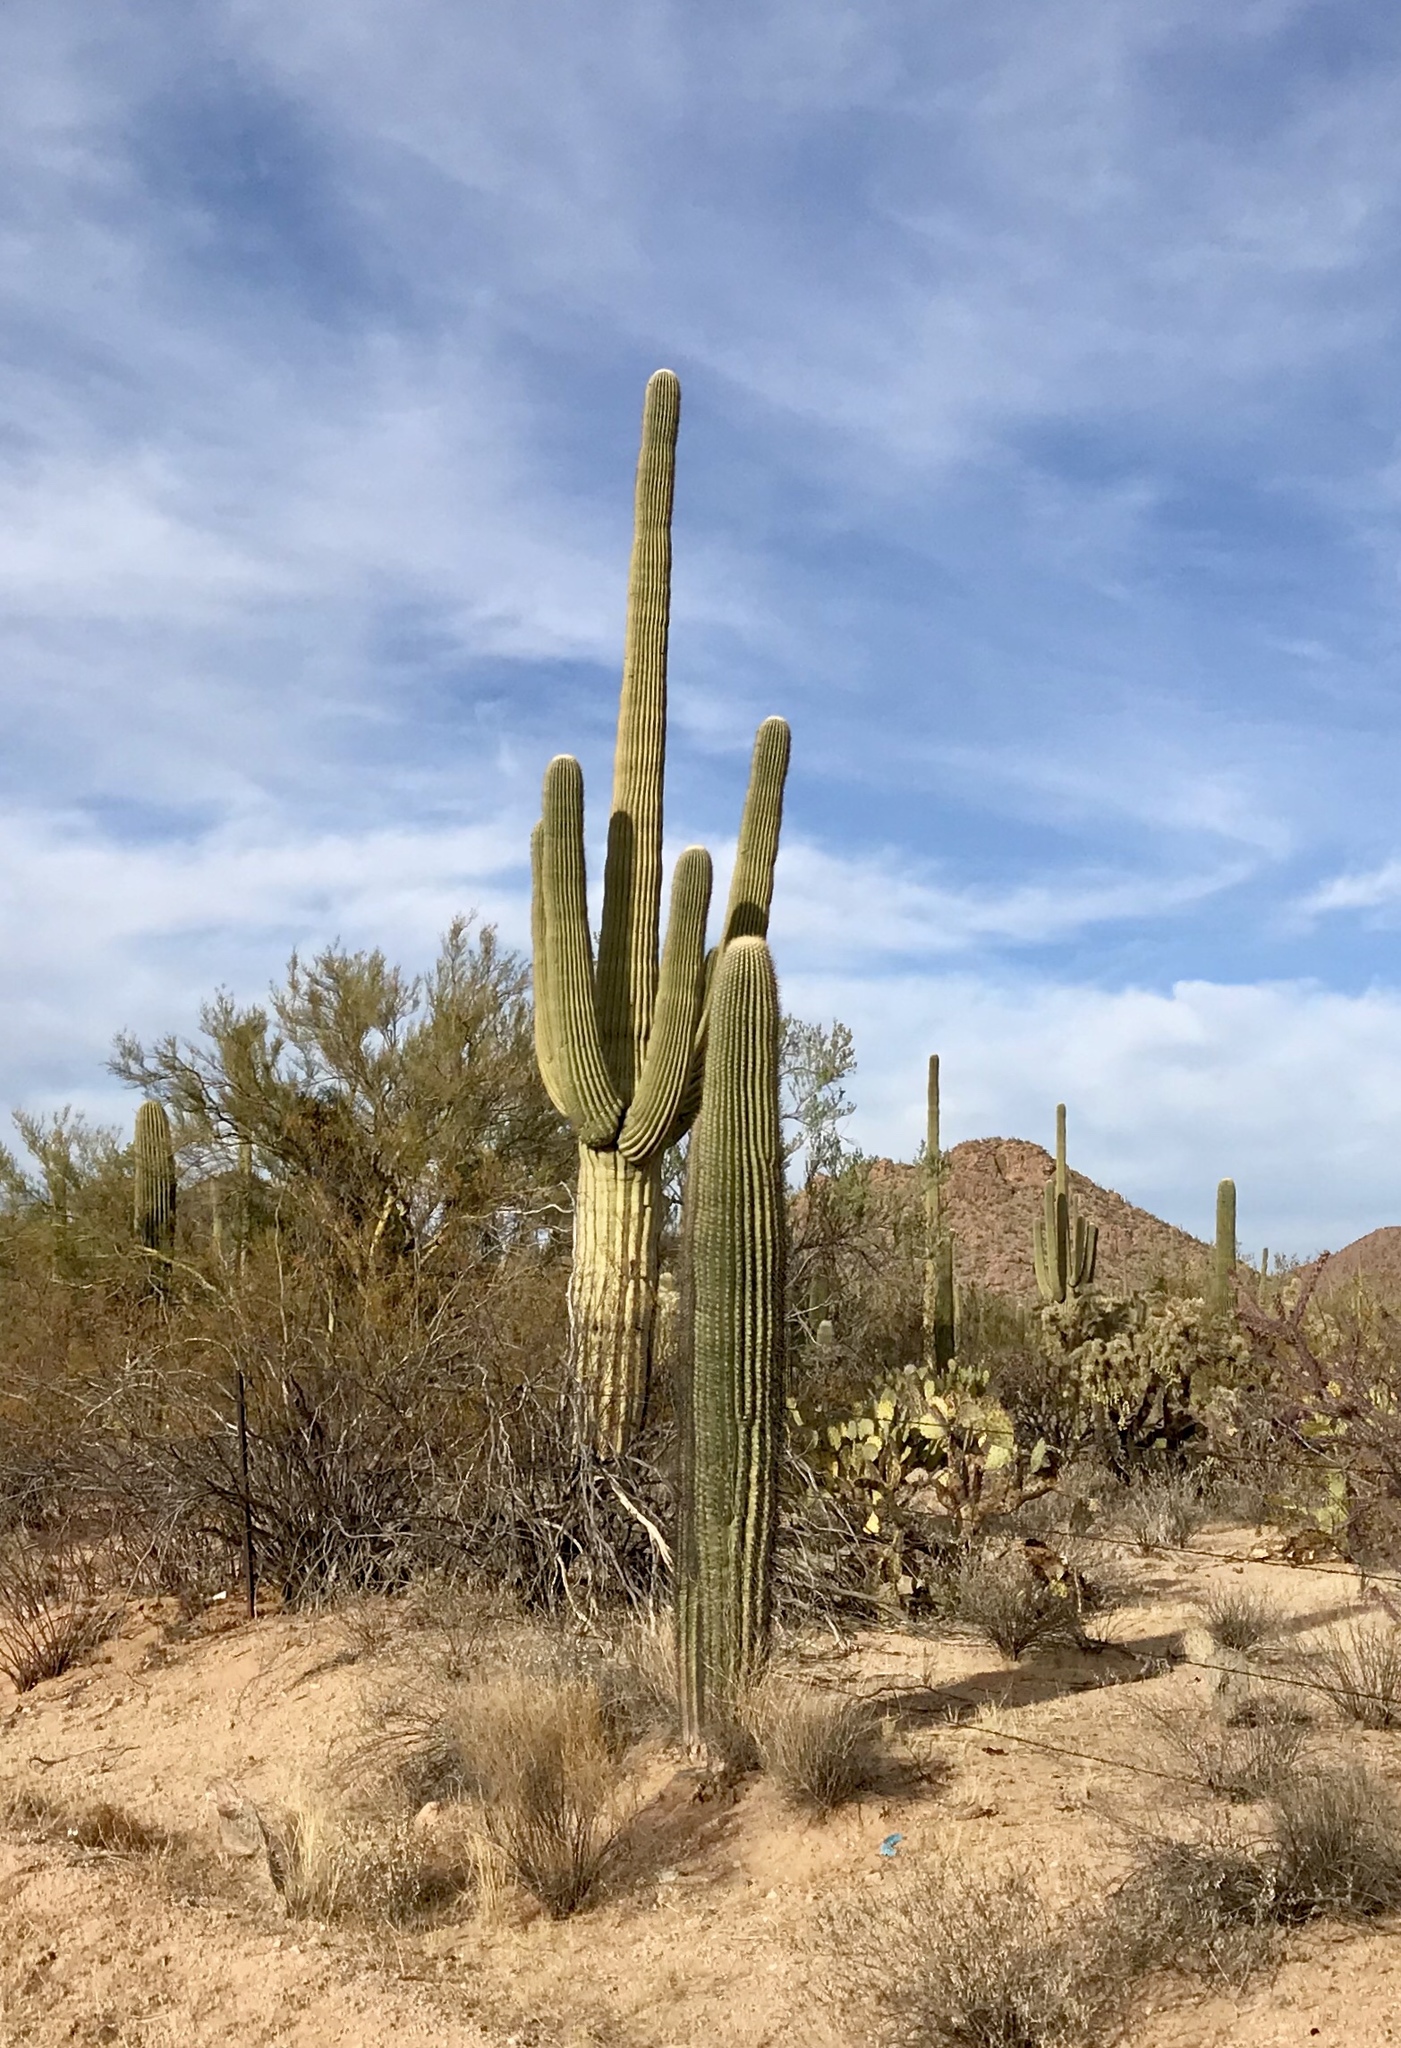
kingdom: Plantae
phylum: Tracheophyta
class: Magnoliopsida
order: Caryophyllales
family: Cactaceae
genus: Carnegiea
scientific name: Carnegiea gigantea
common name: Saguaro
